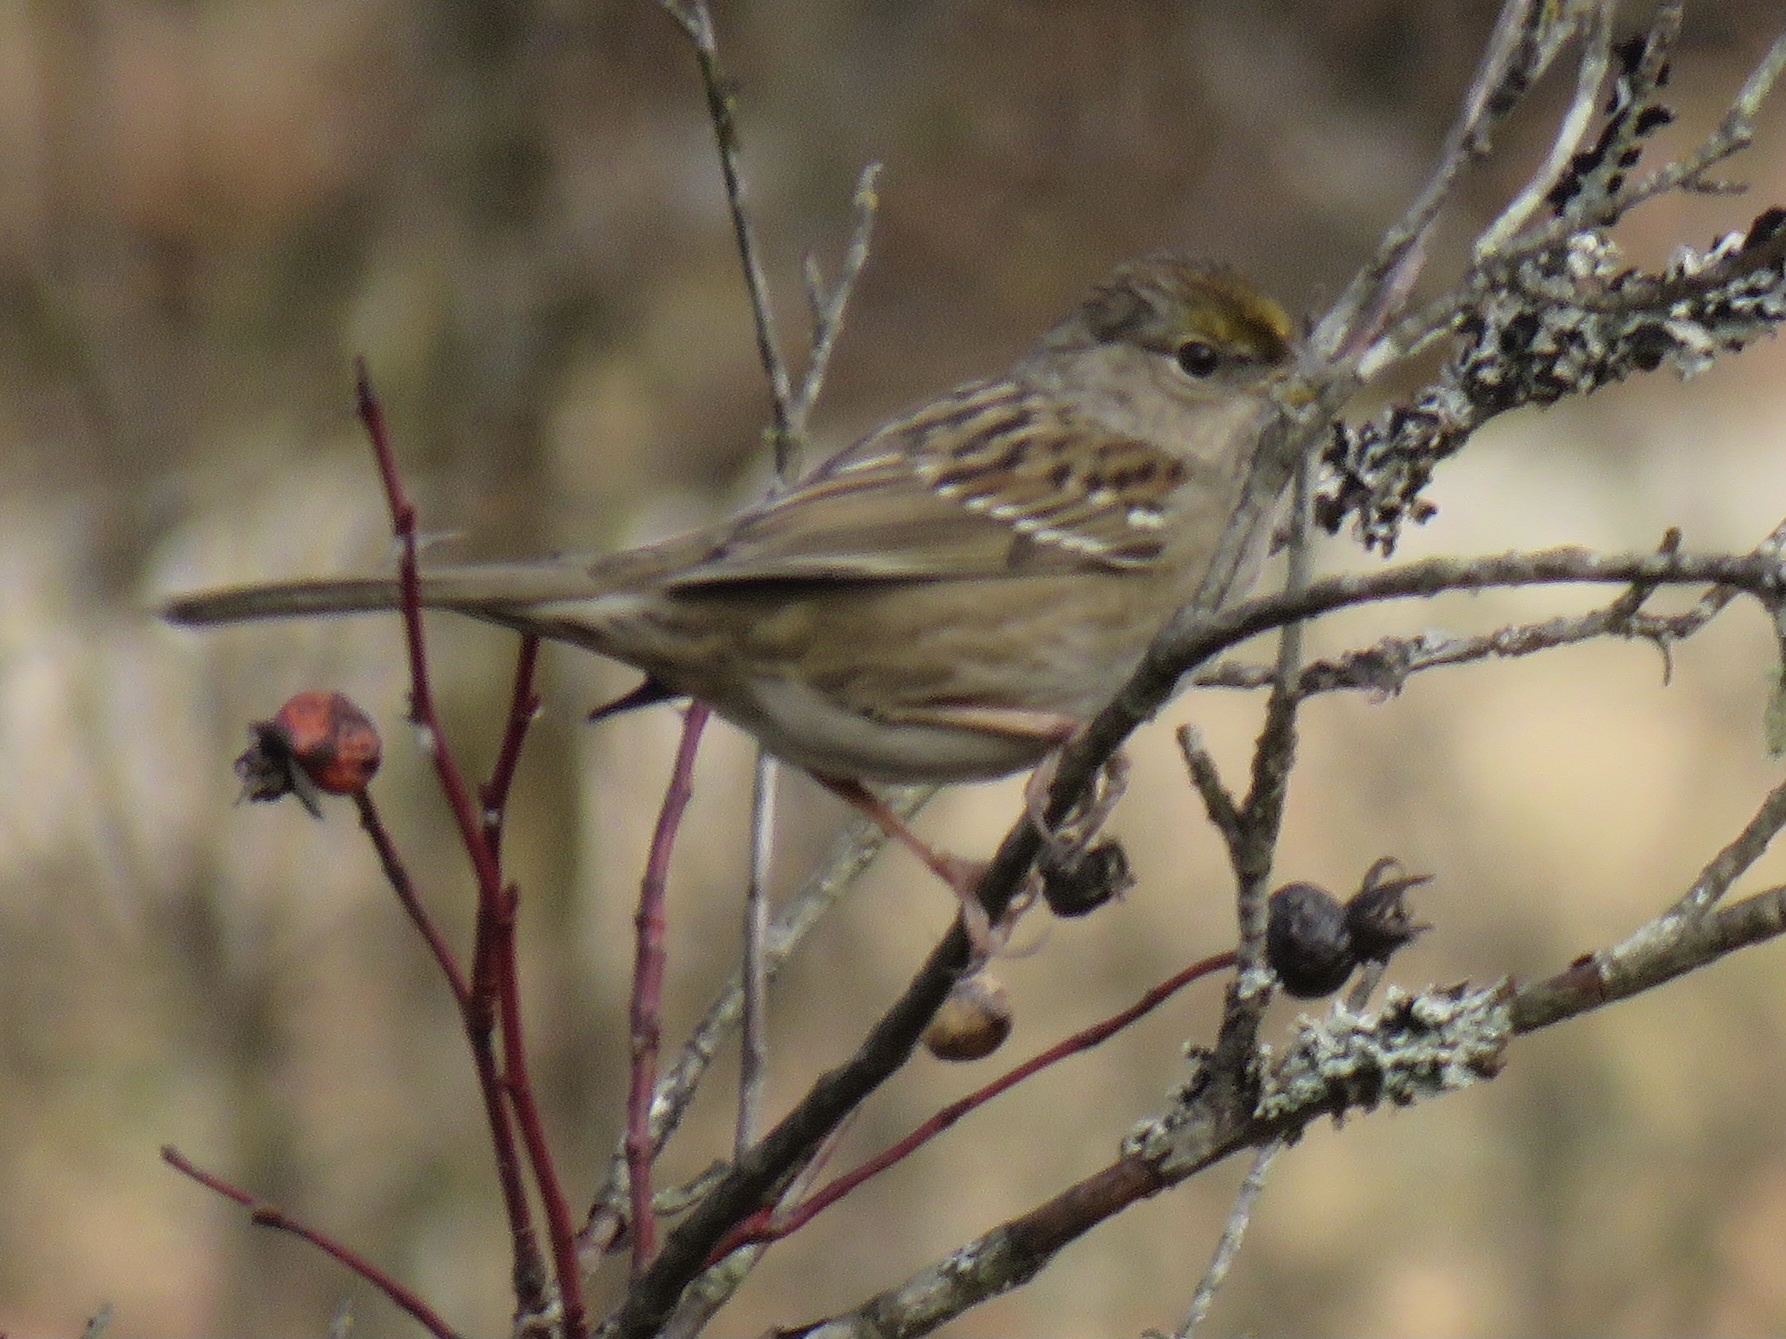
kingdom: Animalia
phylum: Chordata
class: Aves
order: Passeriformes
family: Passerellidae
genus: Zonotrichia
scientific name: Zonotrichia atricapilla
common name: Golden-crowned sparrow
